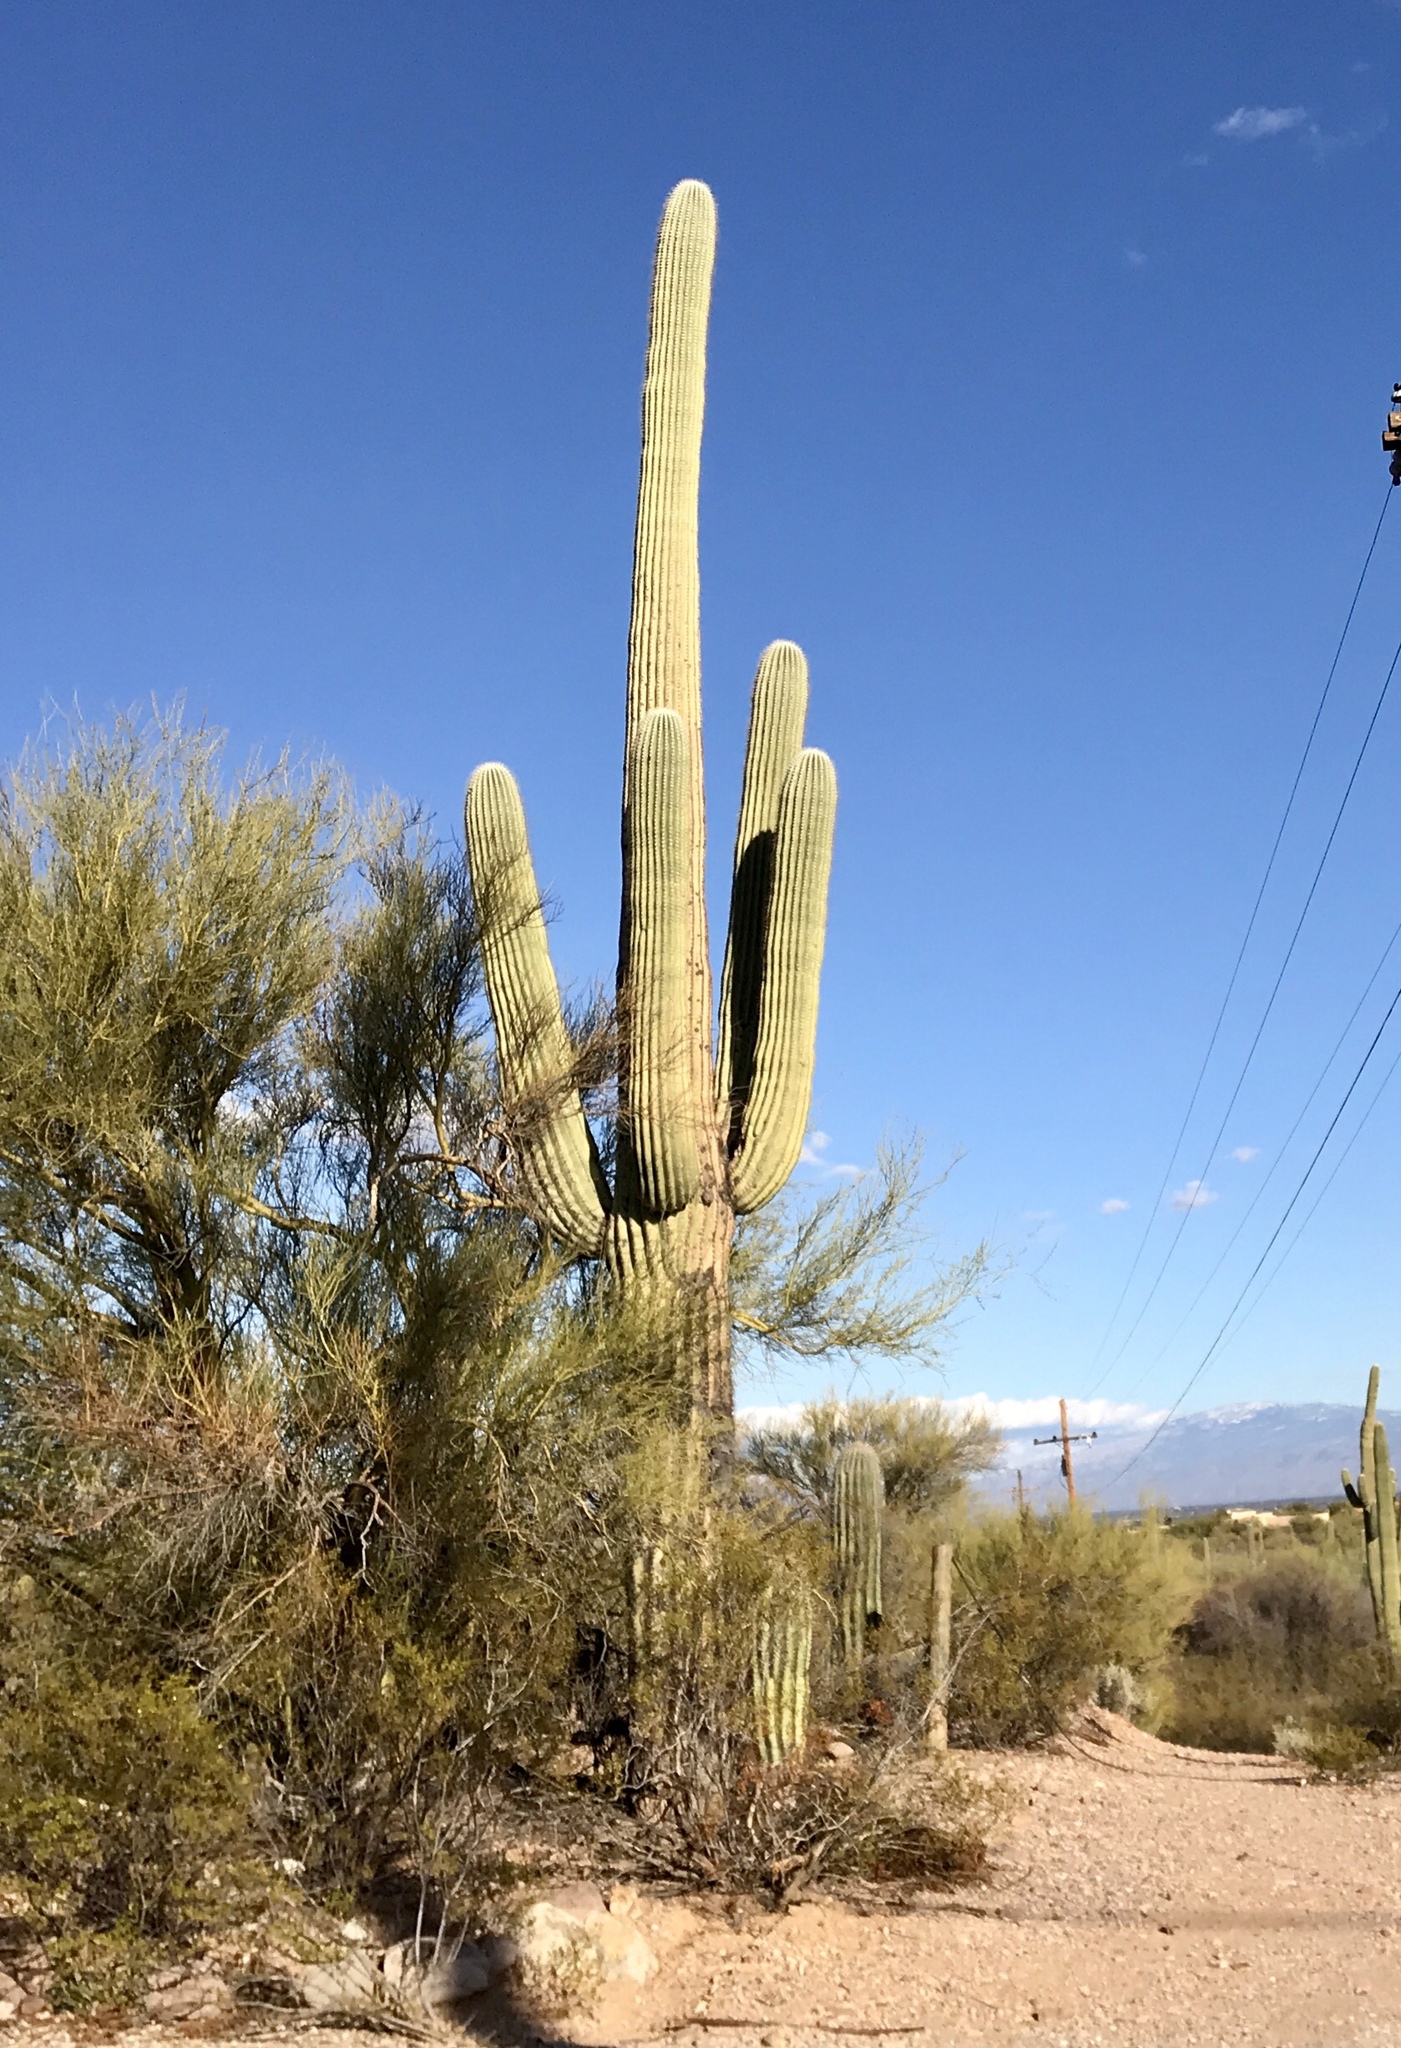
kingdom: Plantae
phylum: Tracheophyta
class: Magnoliopsida
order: Caryophyllales
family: Cactaceae
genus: Carnegiea
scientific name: Carnegiea gigantea
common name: Saguaro
